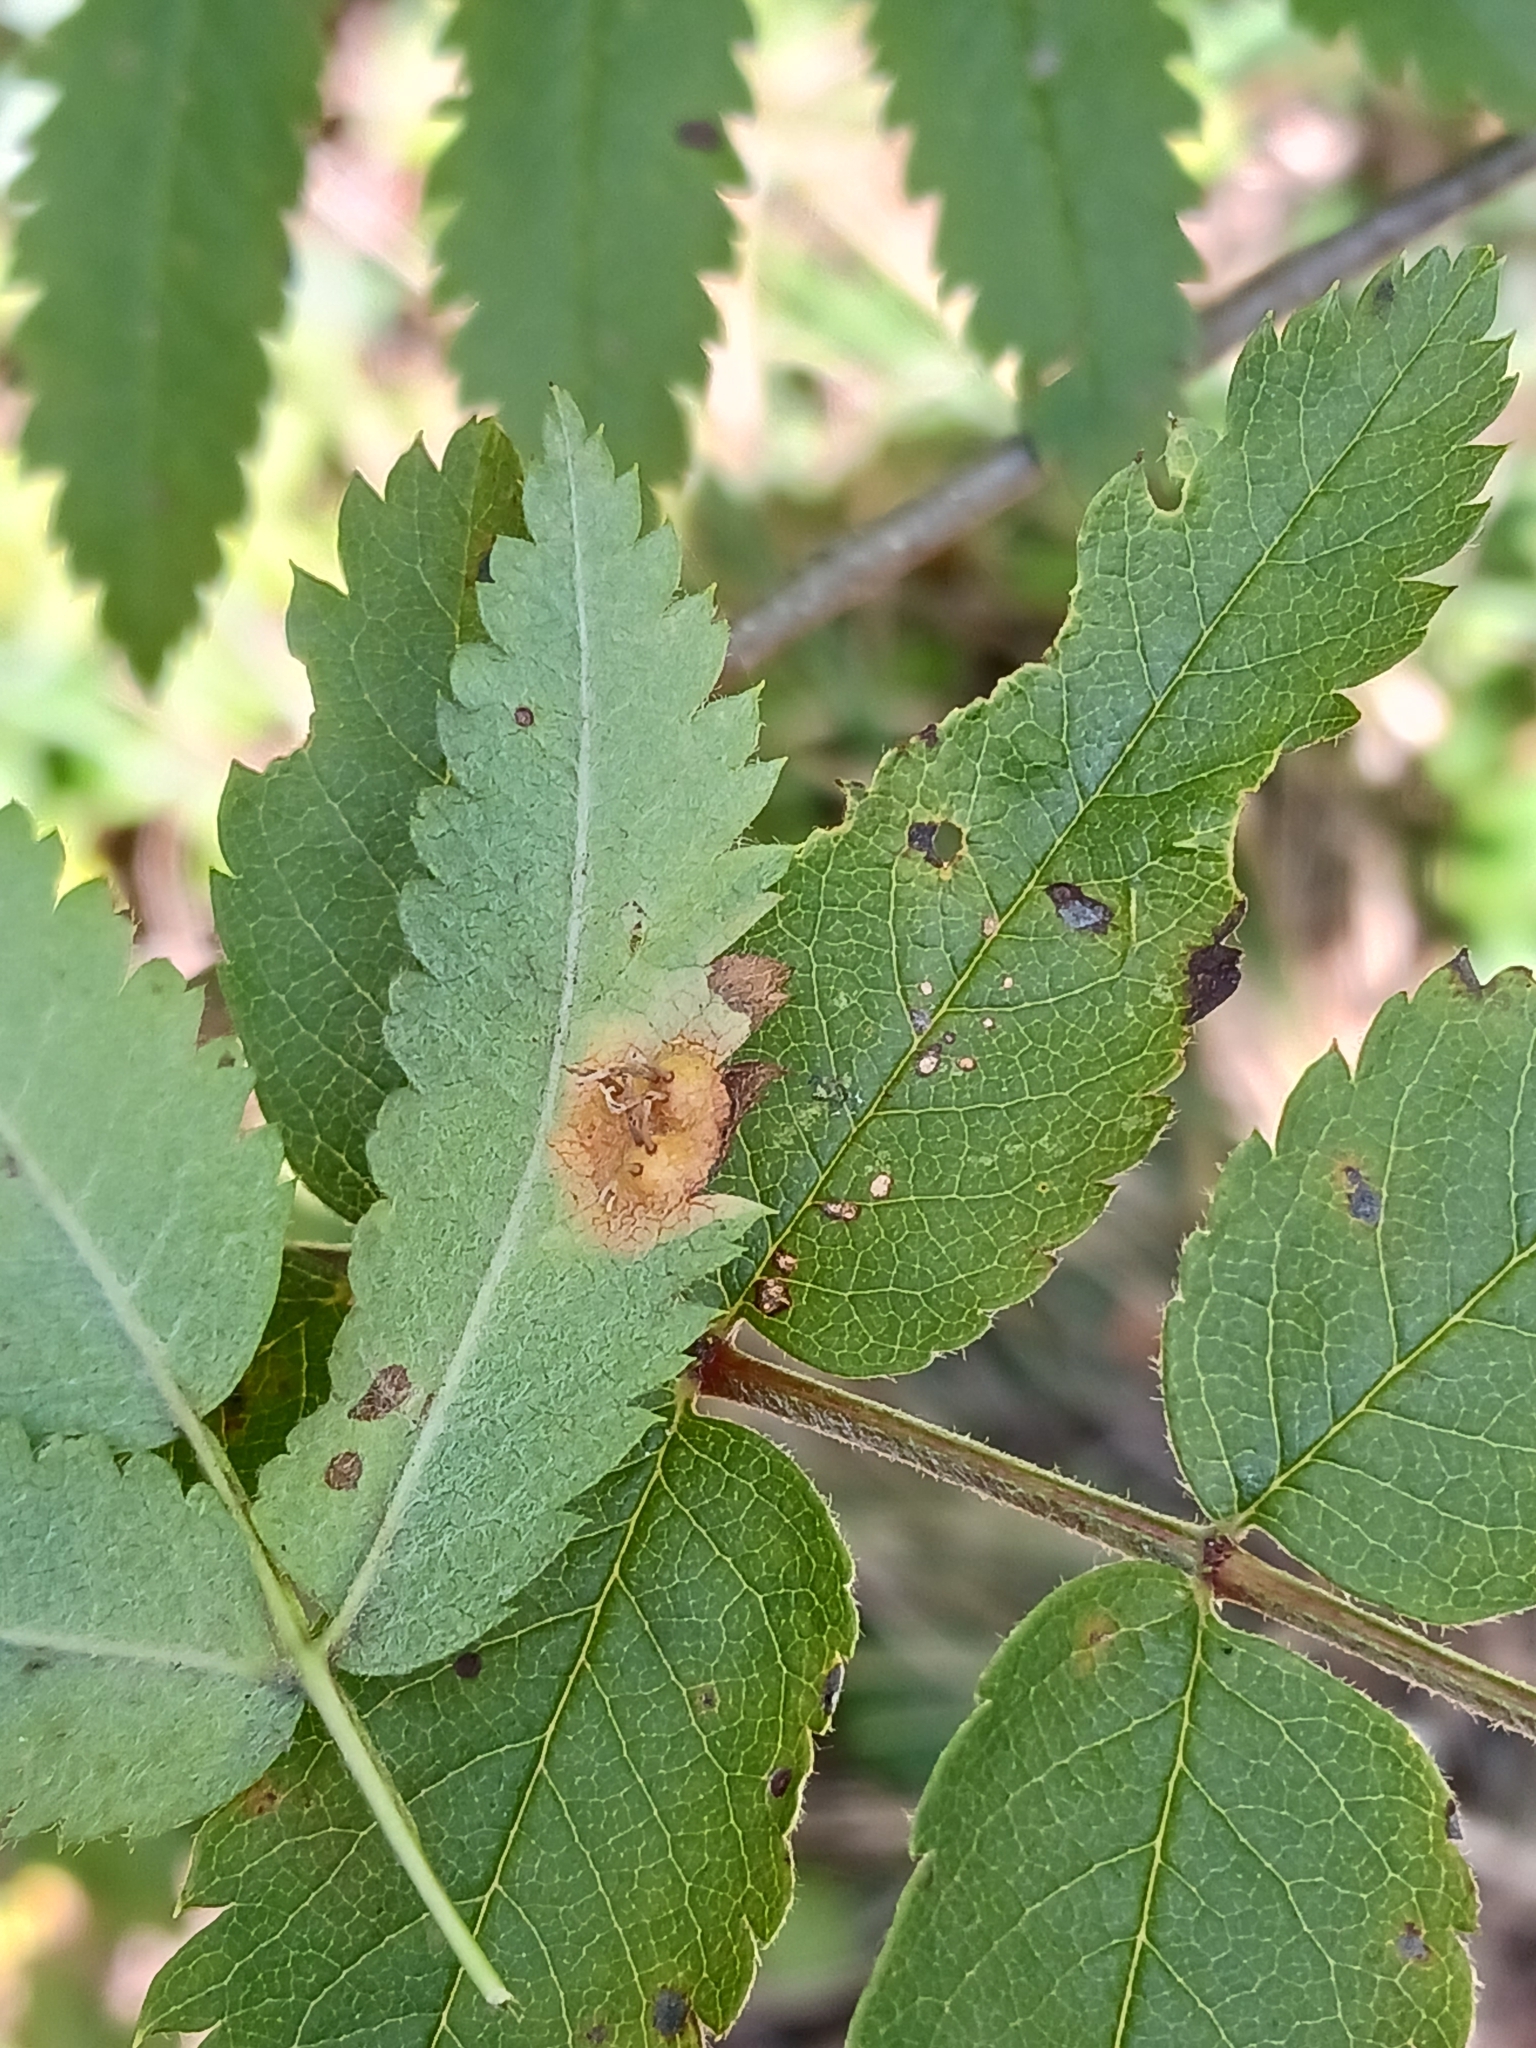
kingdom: Fungi
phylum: Basidiomycota
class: Pucciniomycetes
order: Pucciniales
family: Gymnosporangiaceae
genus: Gymnosporangium
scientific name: Gymnosporangium cornutum
